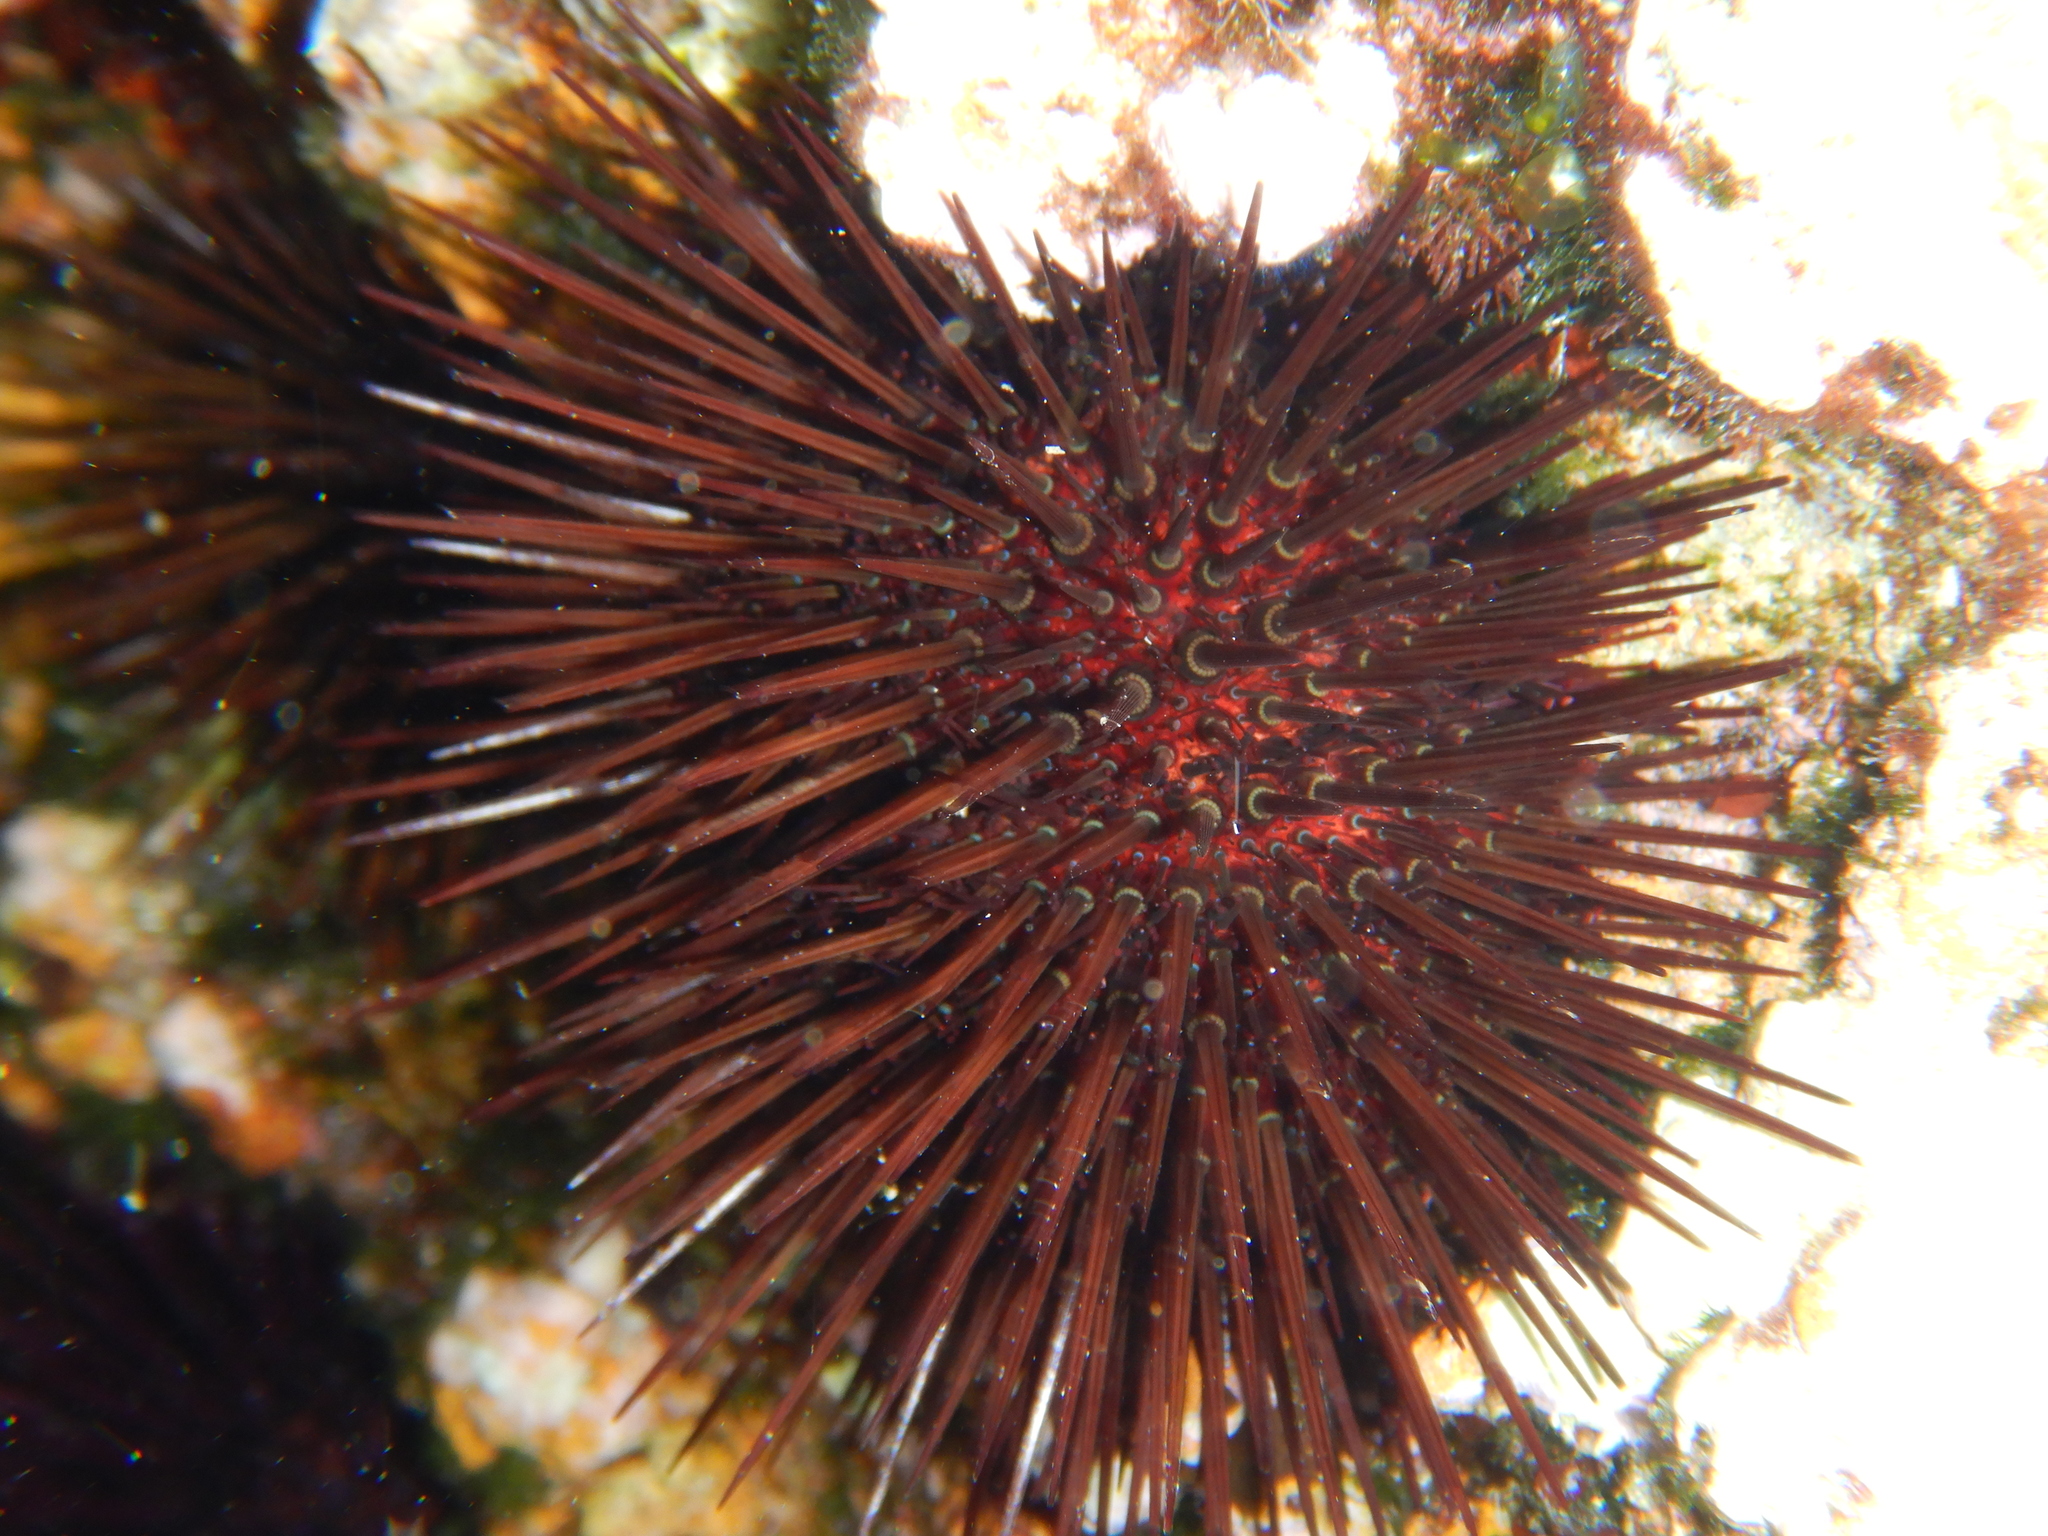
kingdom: Animalia
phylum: Echinodermata
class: Echinoidea
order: Camarodonta
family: Parechinidae
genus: Paracentrotus
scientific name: Paracentrotus lividus
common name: Purple sea urchin
